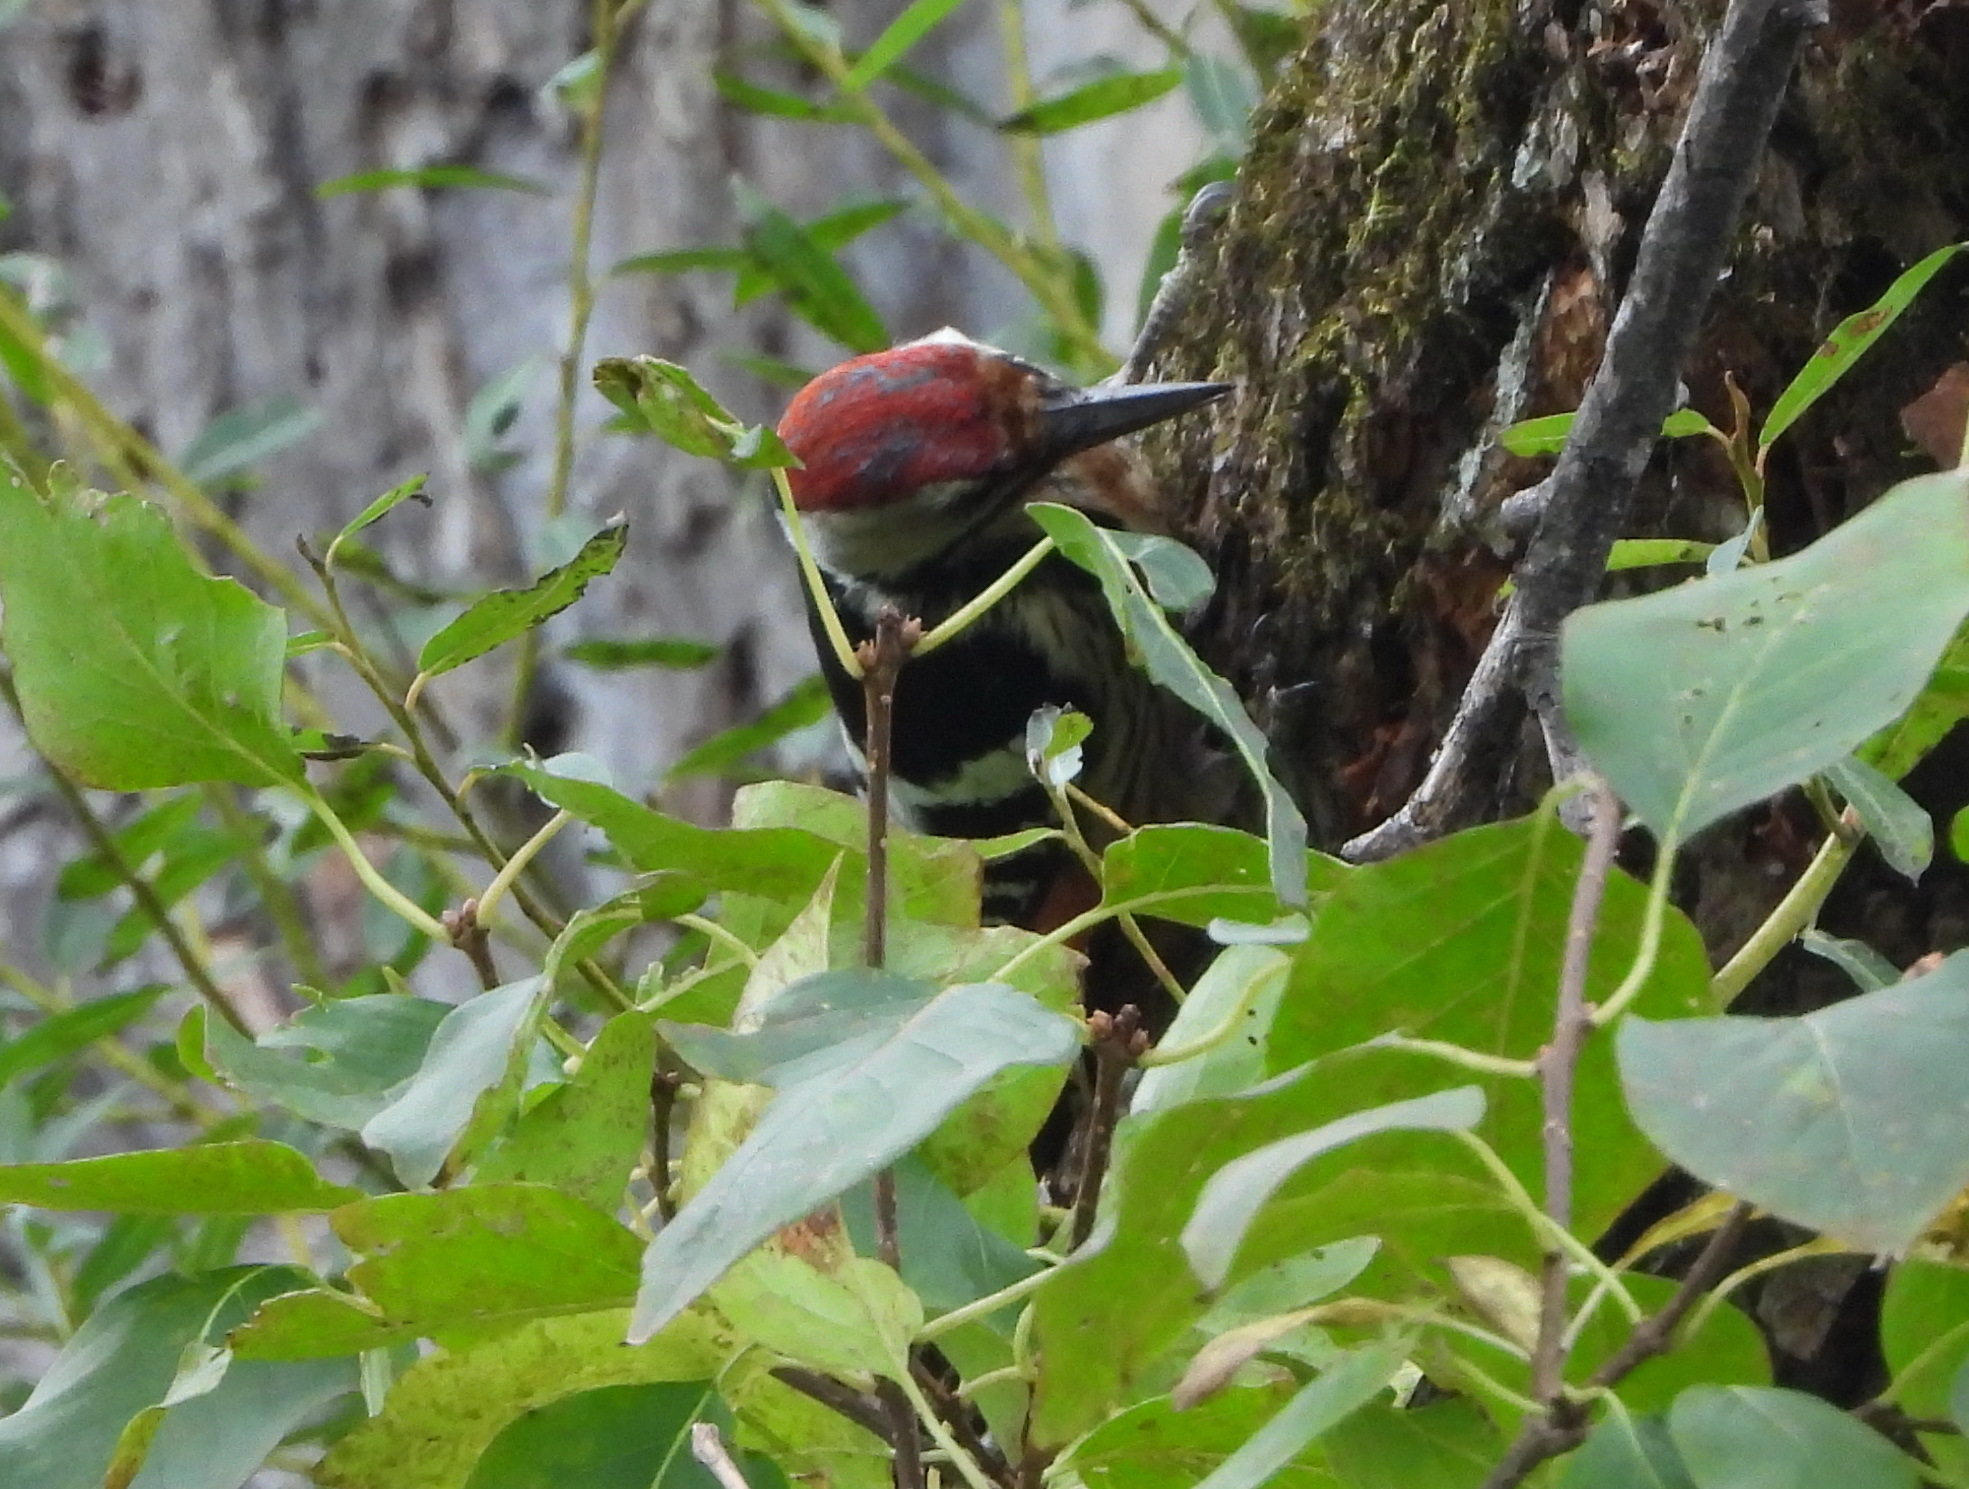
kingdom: Animalia
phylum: Chordata
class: Aves
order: Piciformes
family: Picidae
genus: Dendrocopos
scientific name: Dendrocopos leucotos
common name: White-backed woodpecker
